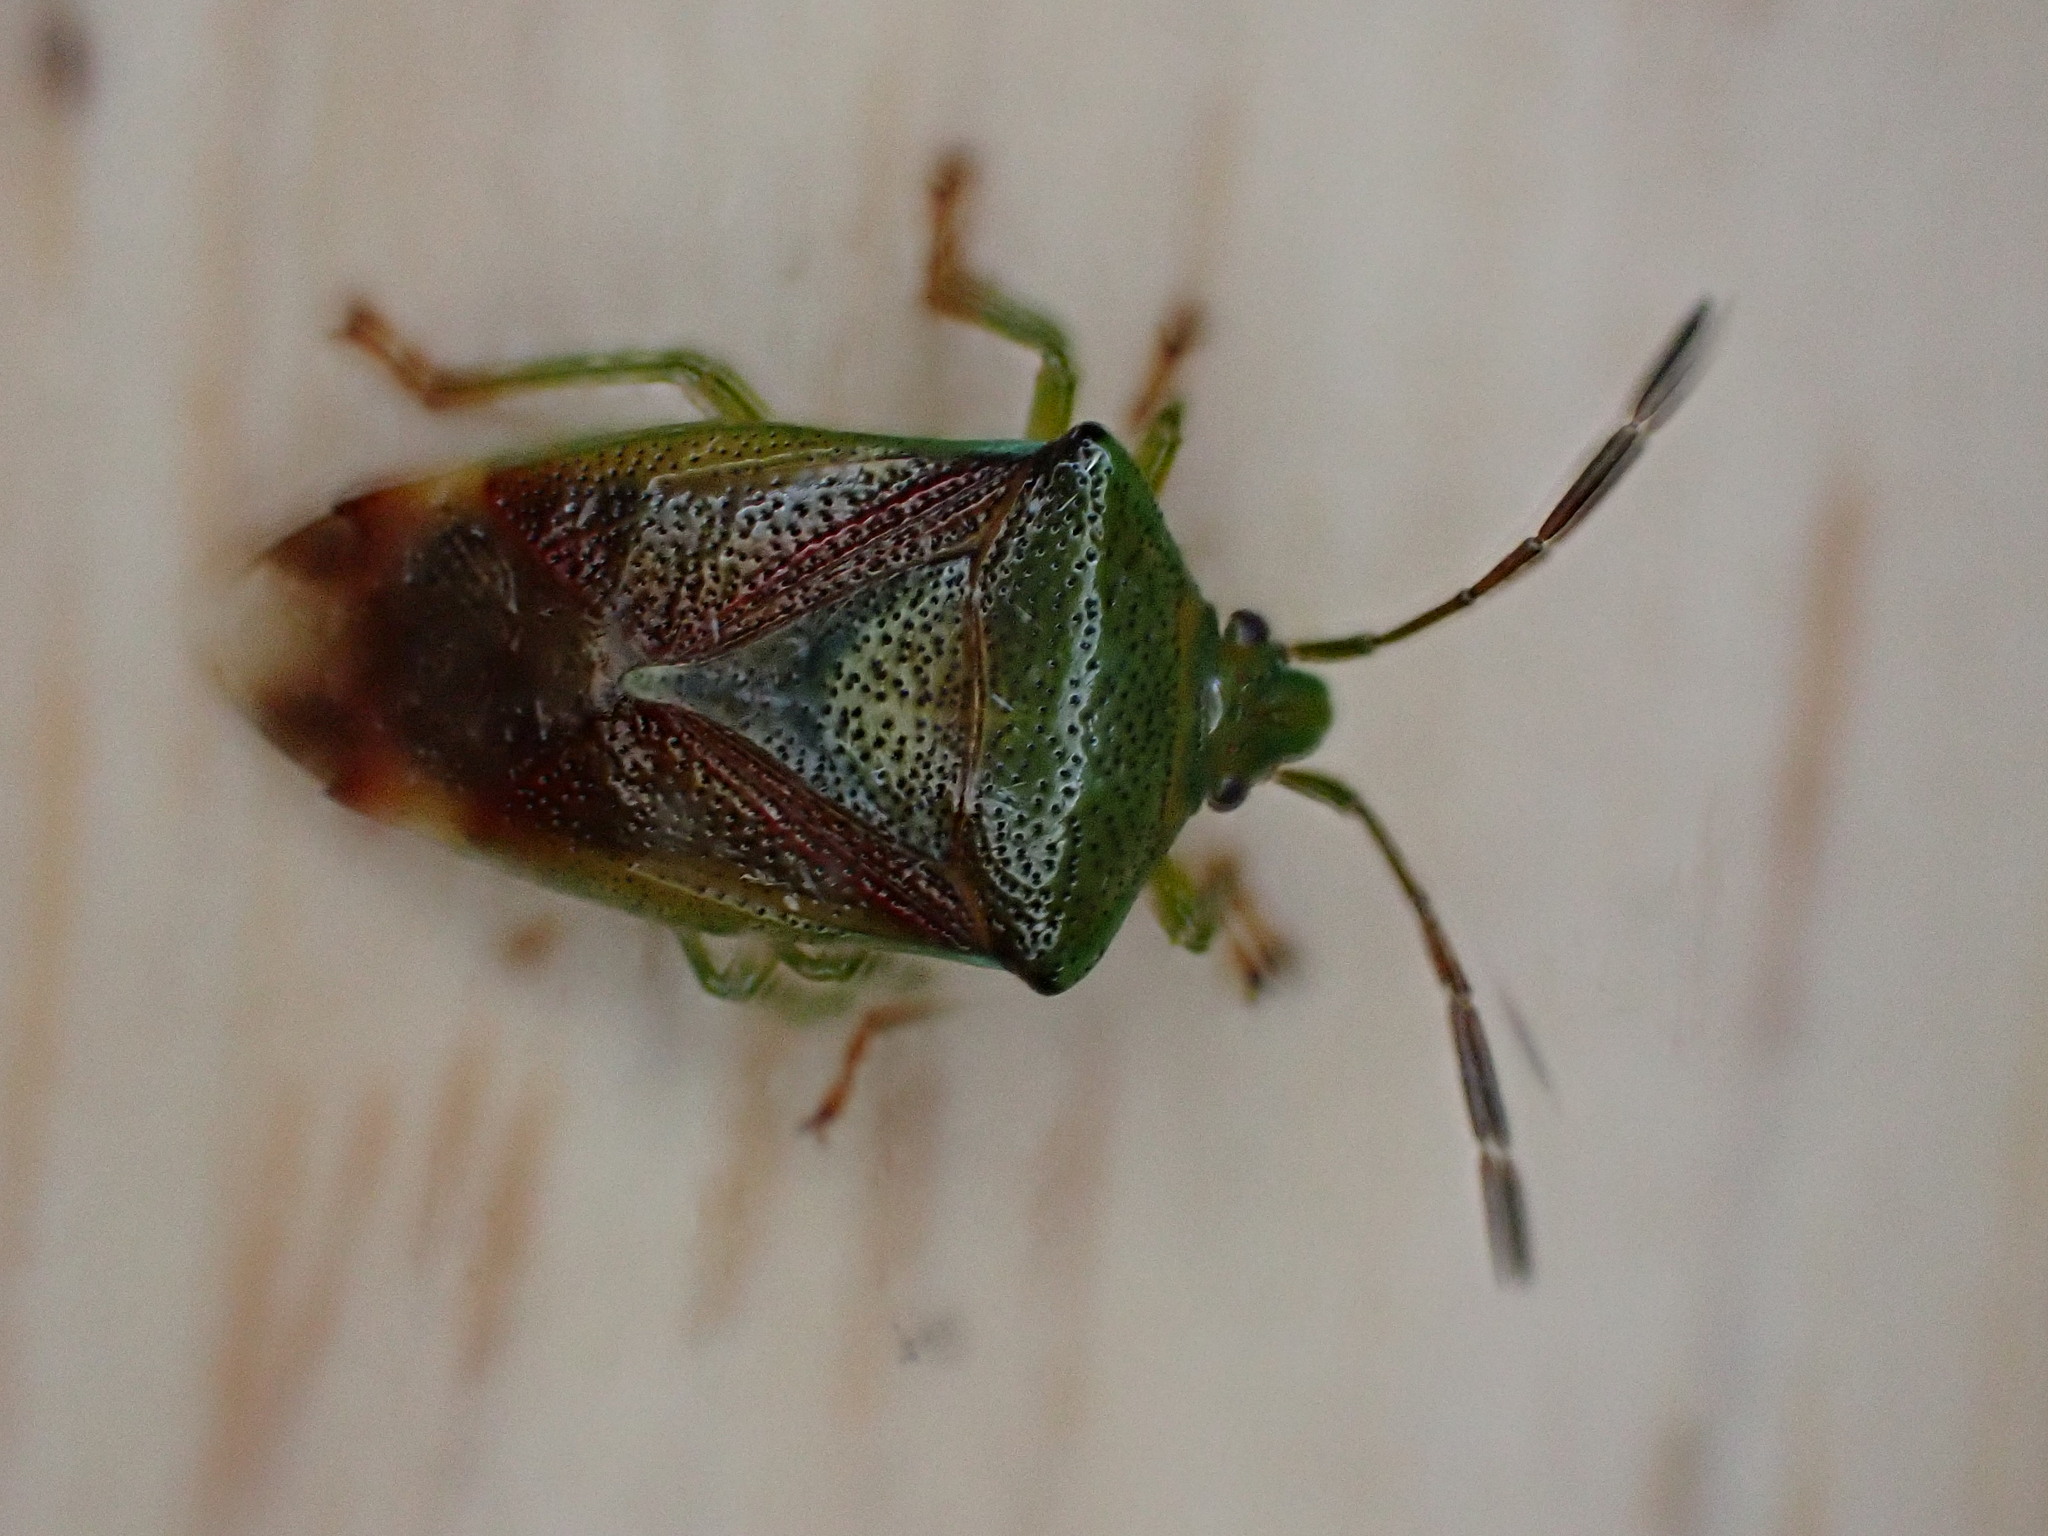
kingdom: Animalia
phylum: Arthropoda
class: Insecta
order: Hemiptera
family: Acanthosomatidae
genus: Elasmostethus
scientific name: Elasmostethus interstinctus
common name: Birch shieldbug
